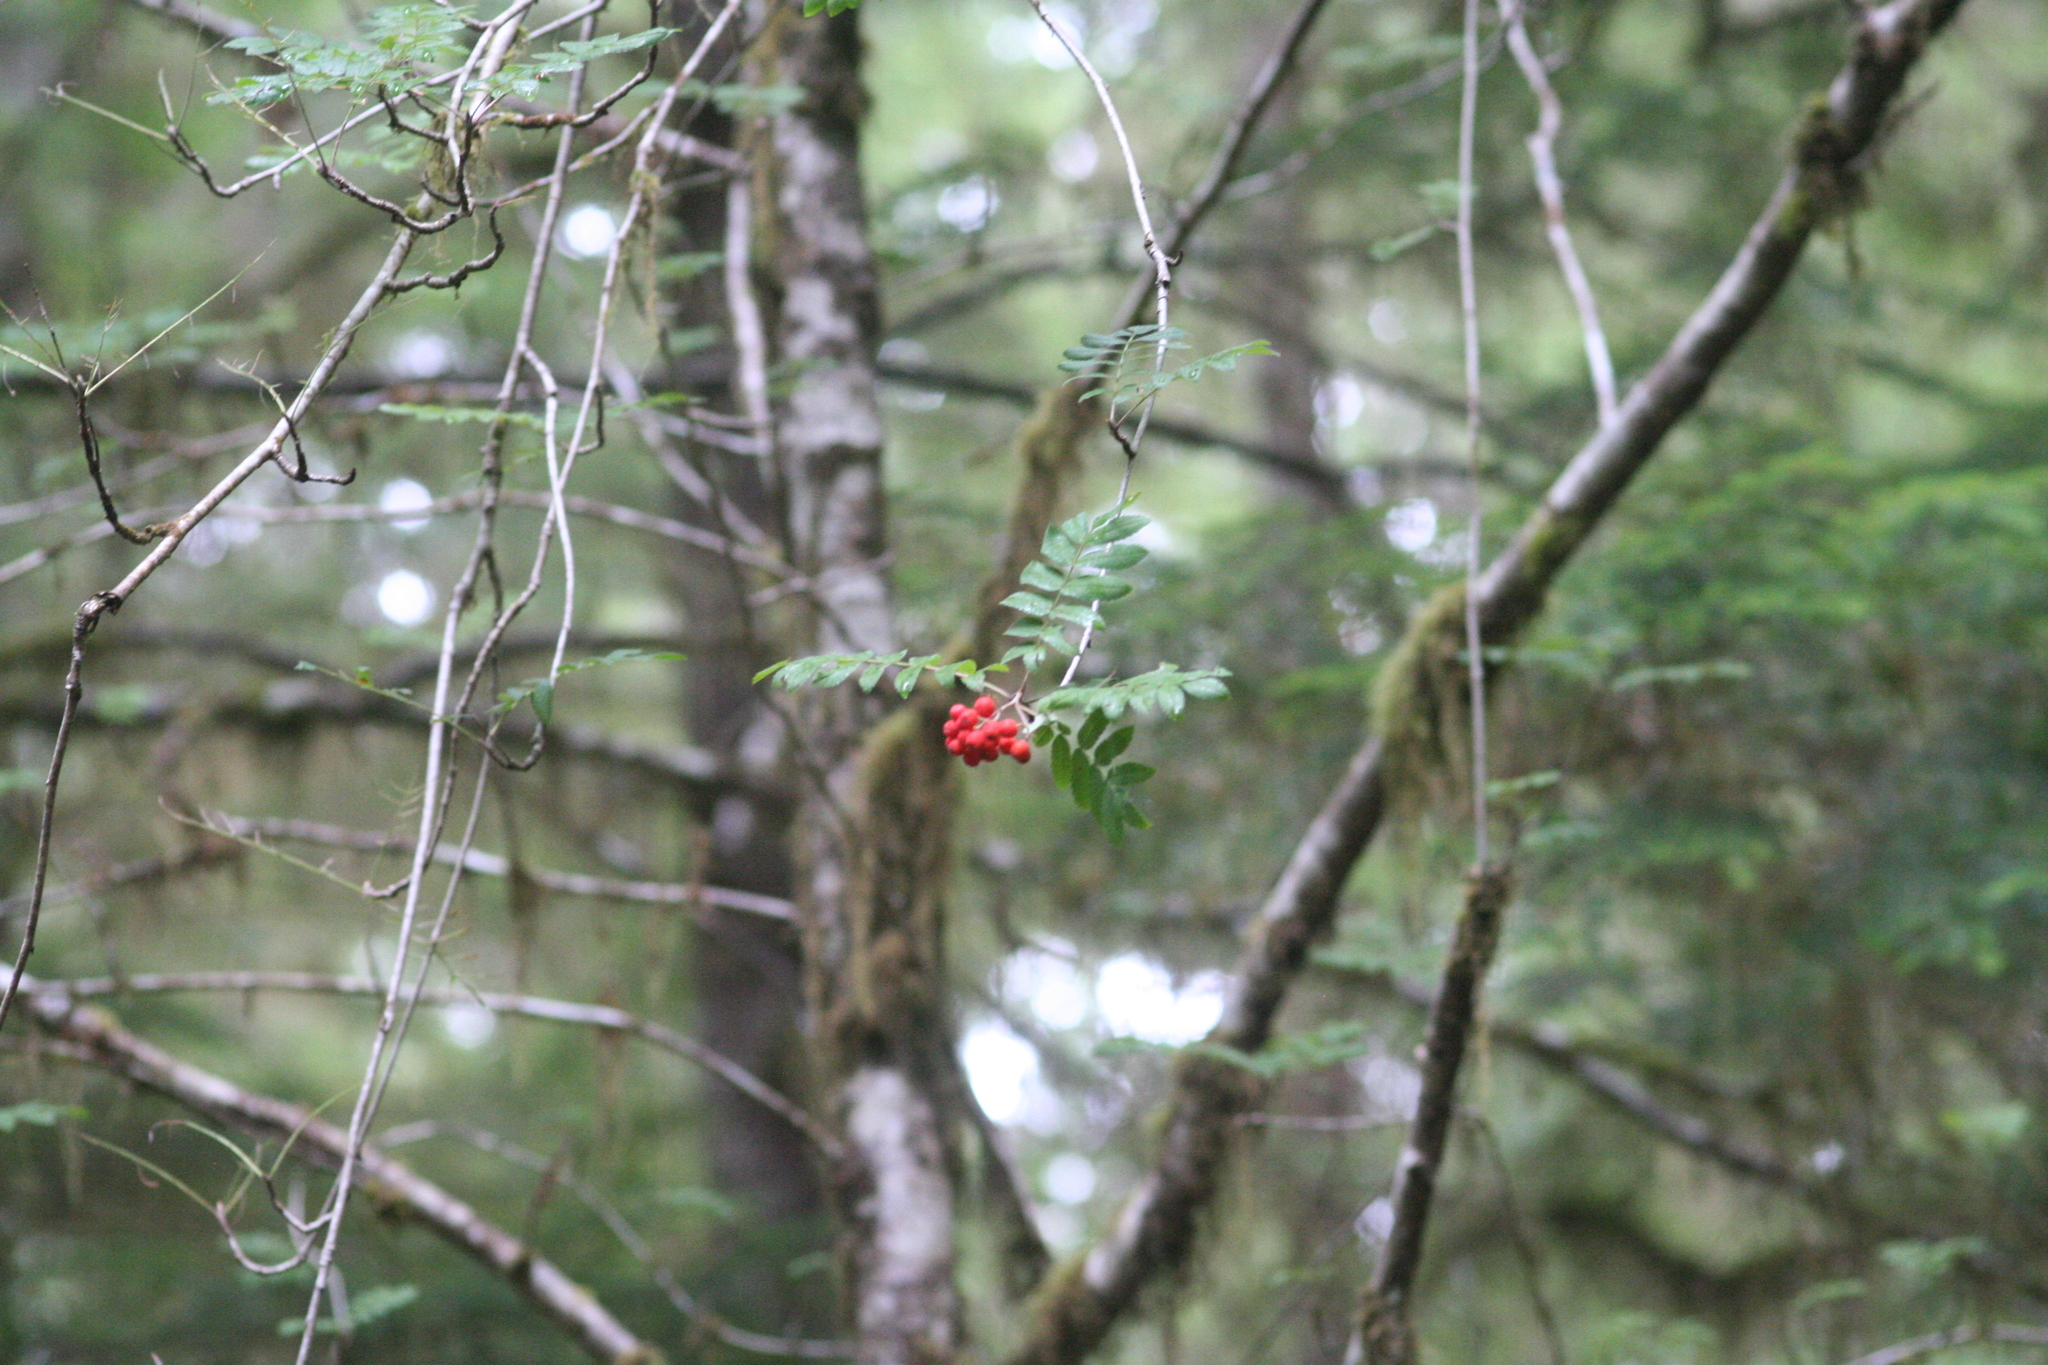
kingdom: Plantae
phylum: Tracheophyta
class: Magnoliopsida
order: Rosales
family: Rosaceae
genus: Sorbus
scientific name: Sorbus aucuparia
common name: Rowan
